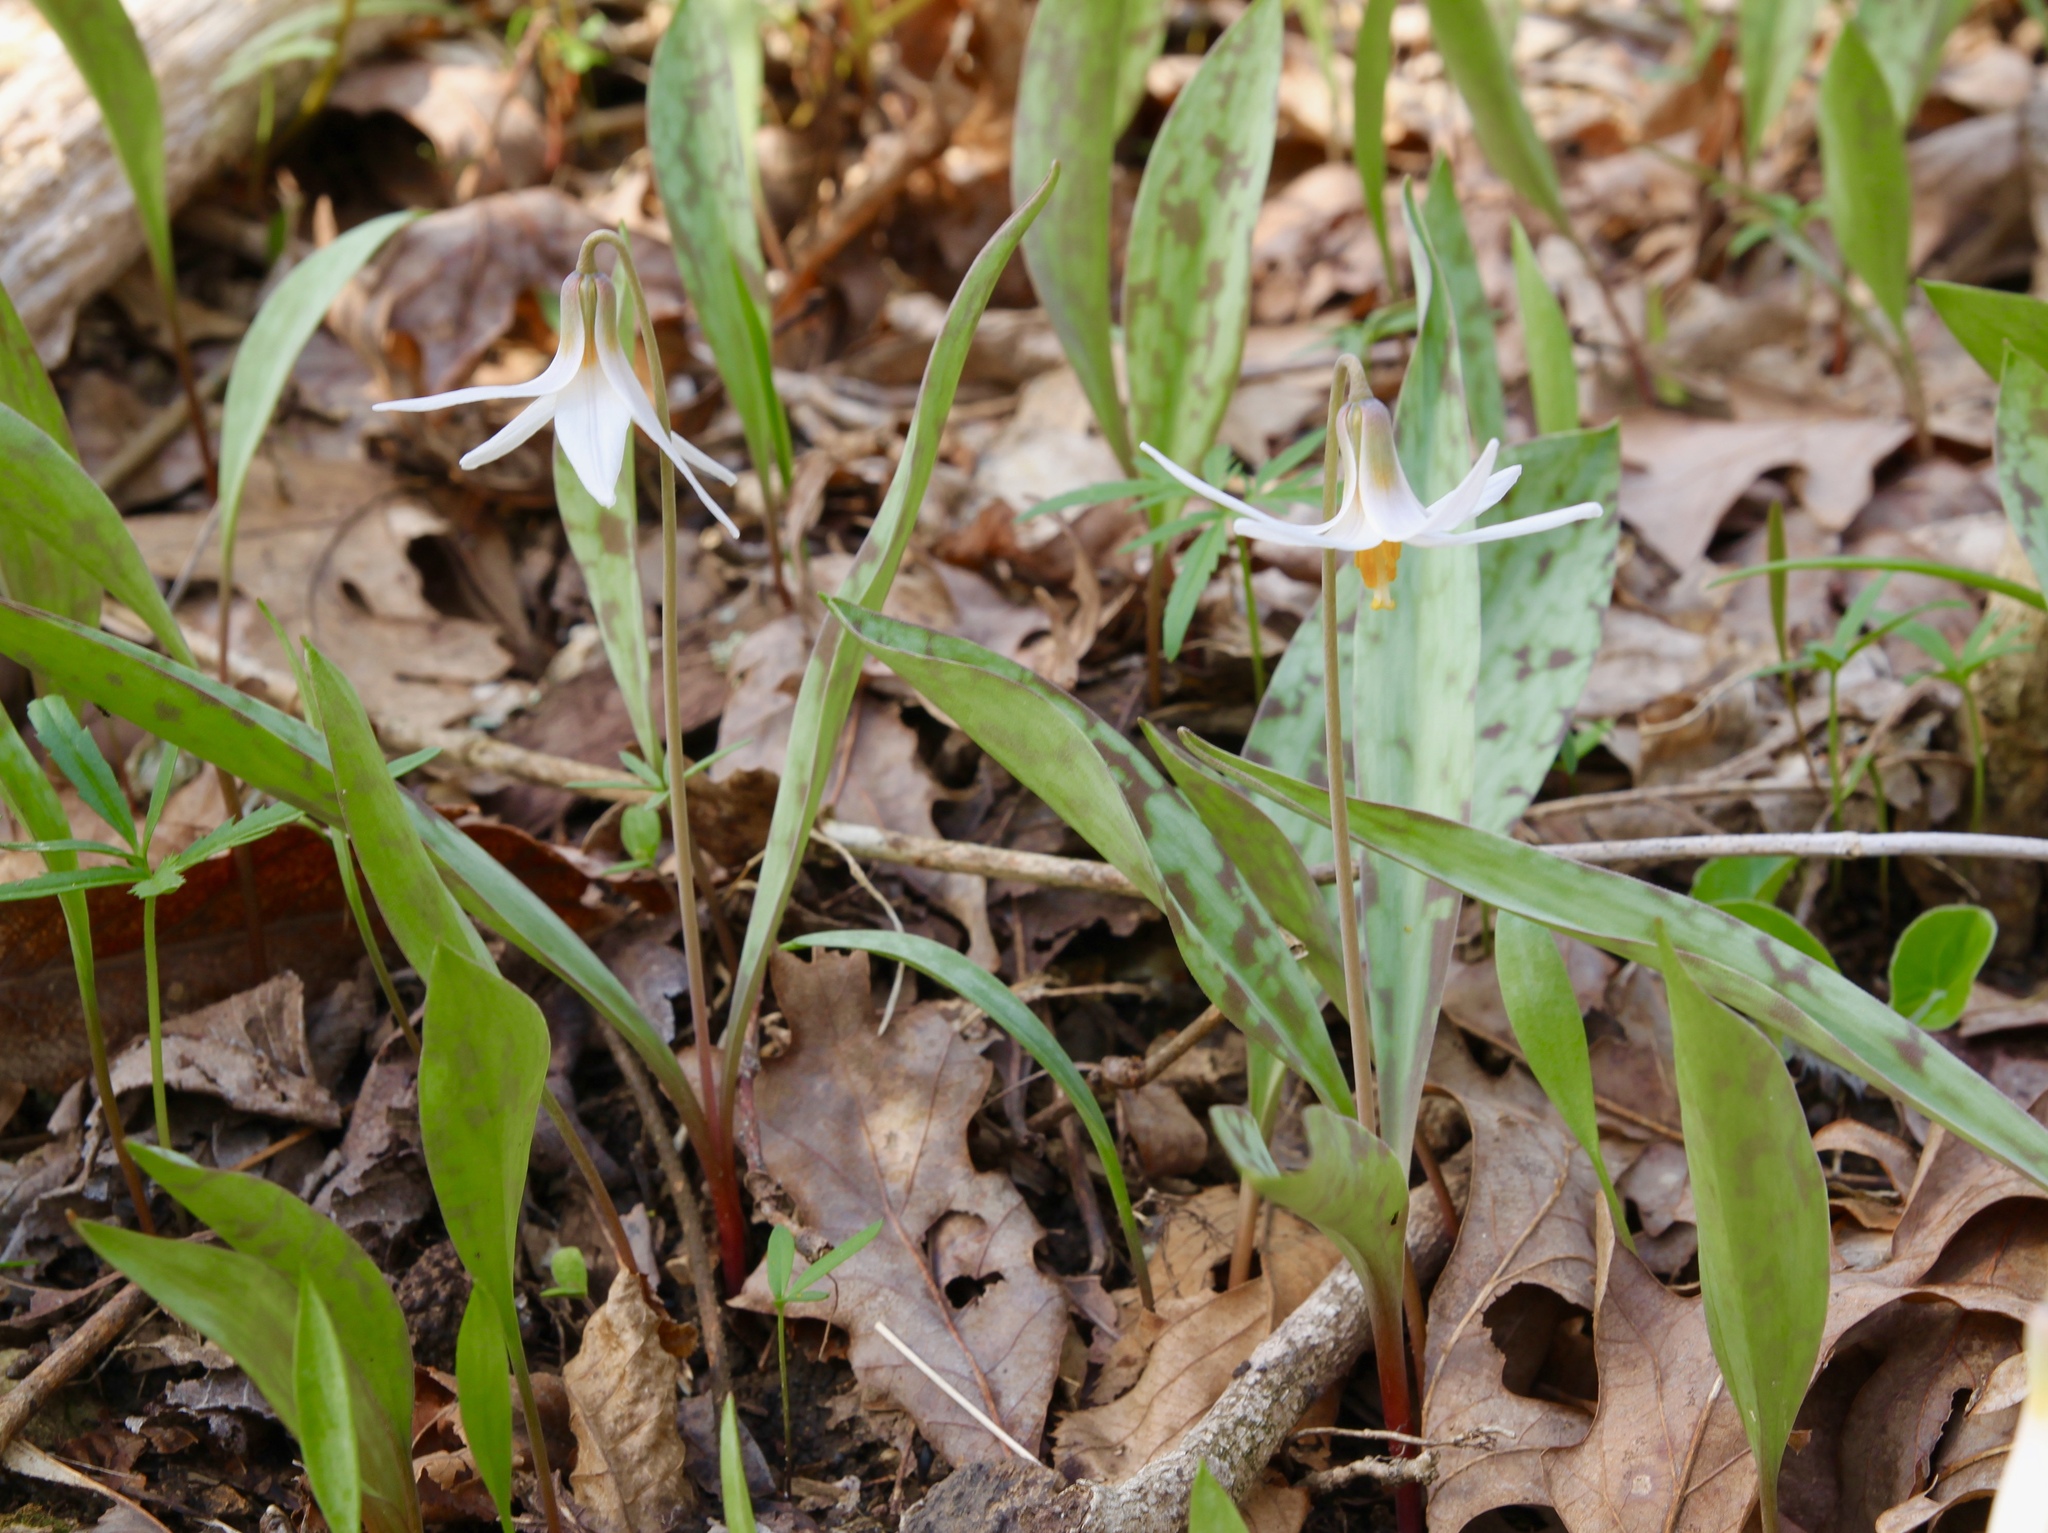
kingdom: Plantae
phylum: Tracheophyta
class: Liliopsida
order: Liliales
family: Liliaceae
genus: Erythronium
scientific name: Erythronium albidum
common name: White trout-lily
